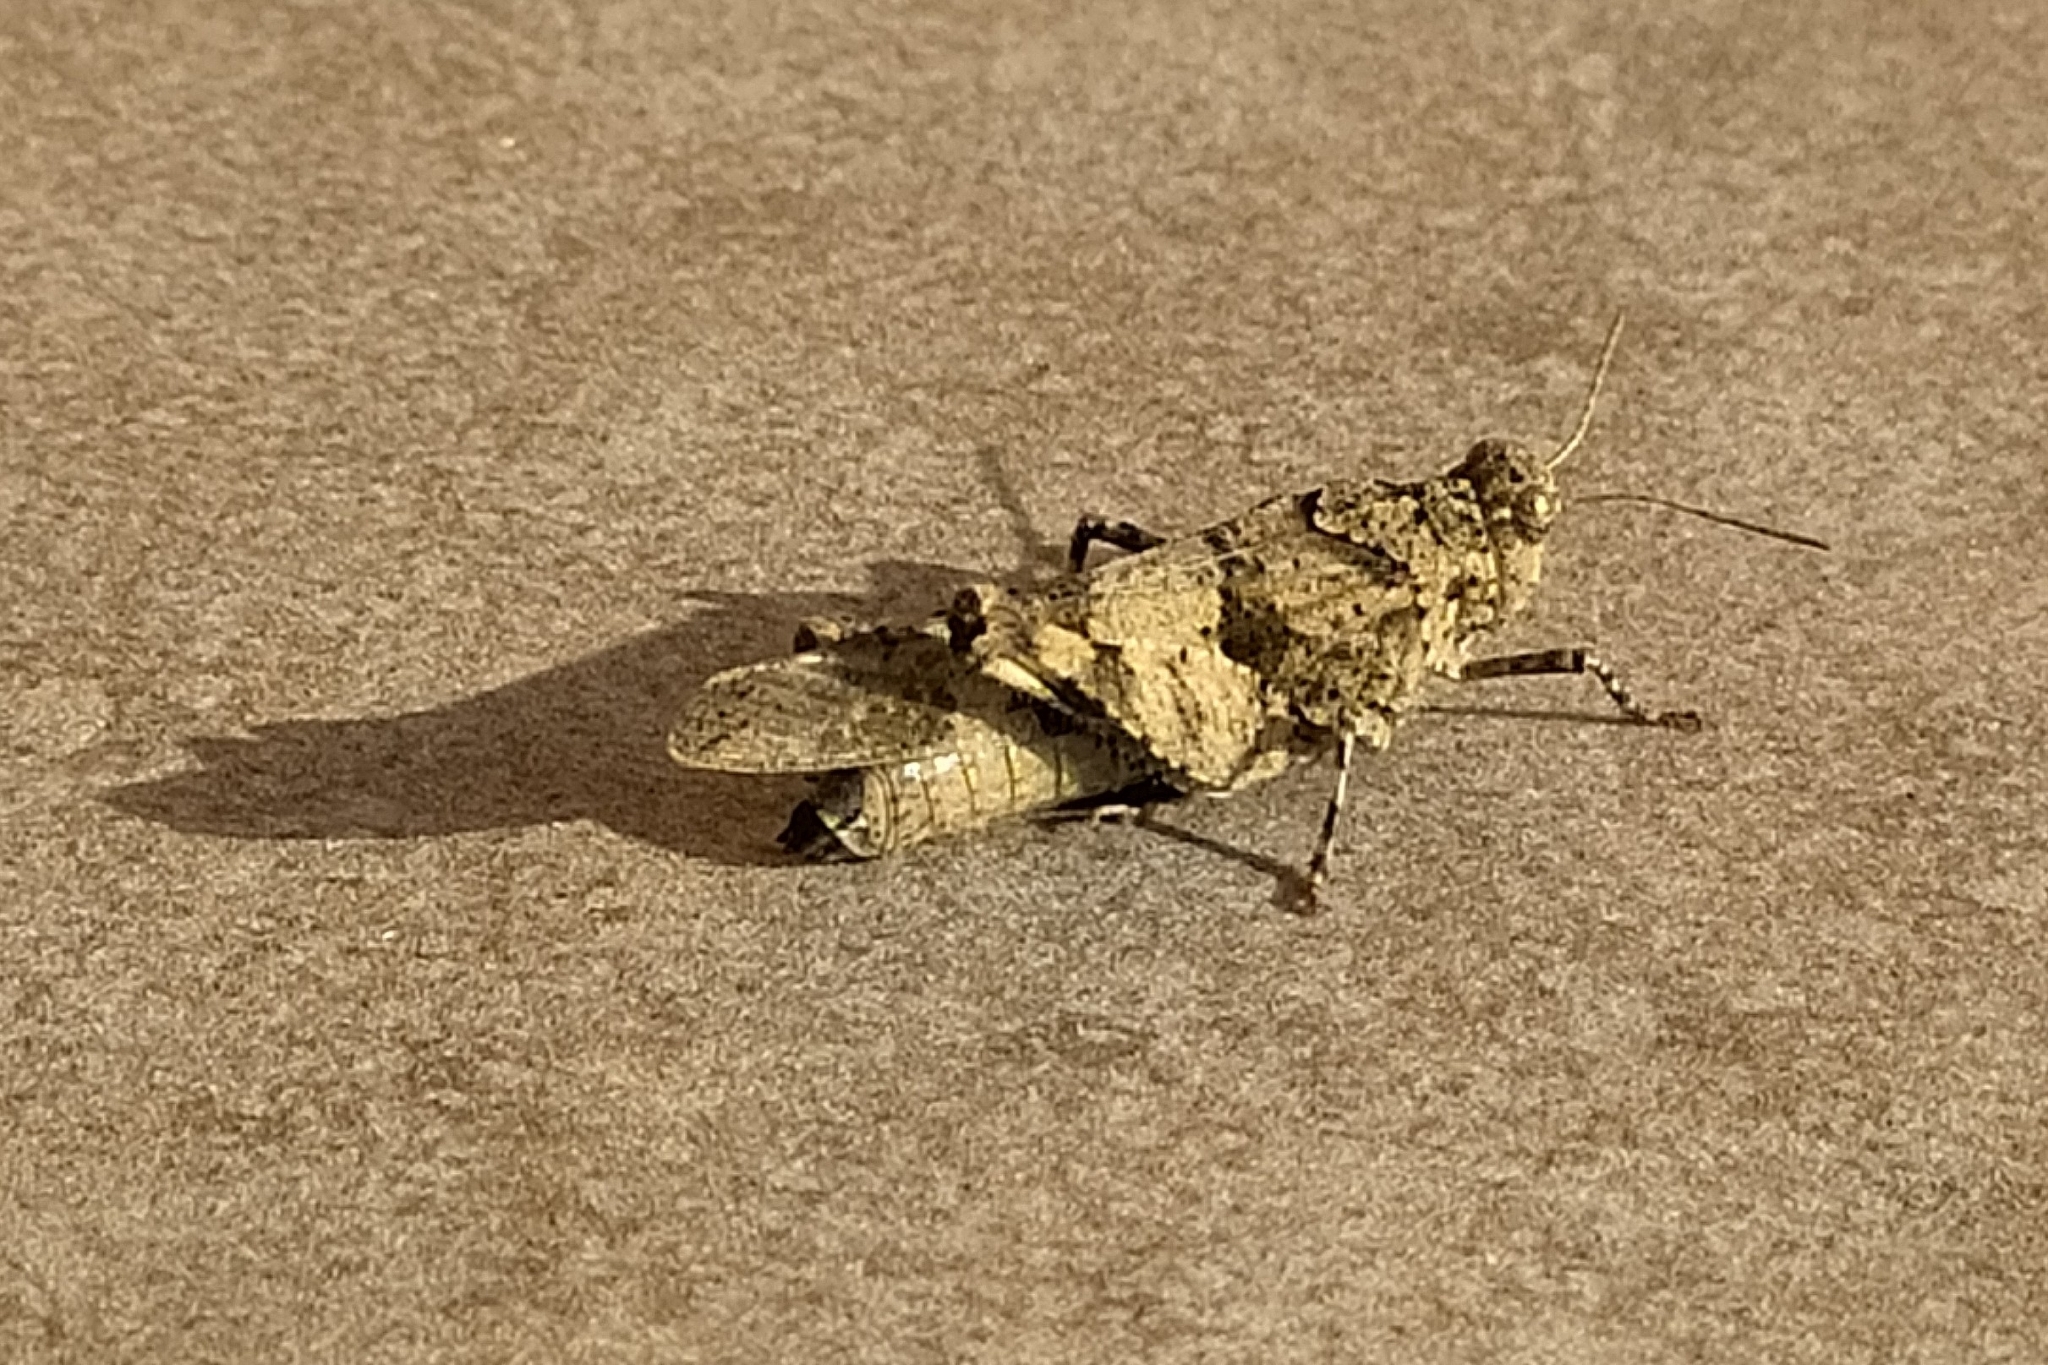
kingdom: Animalia
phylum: Arthropoda
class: Insecta
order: Orthoptera
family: Acrididae
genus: Oedipoda
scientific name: Oedipoda caerulescens
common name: Blue-winged grasshopper
